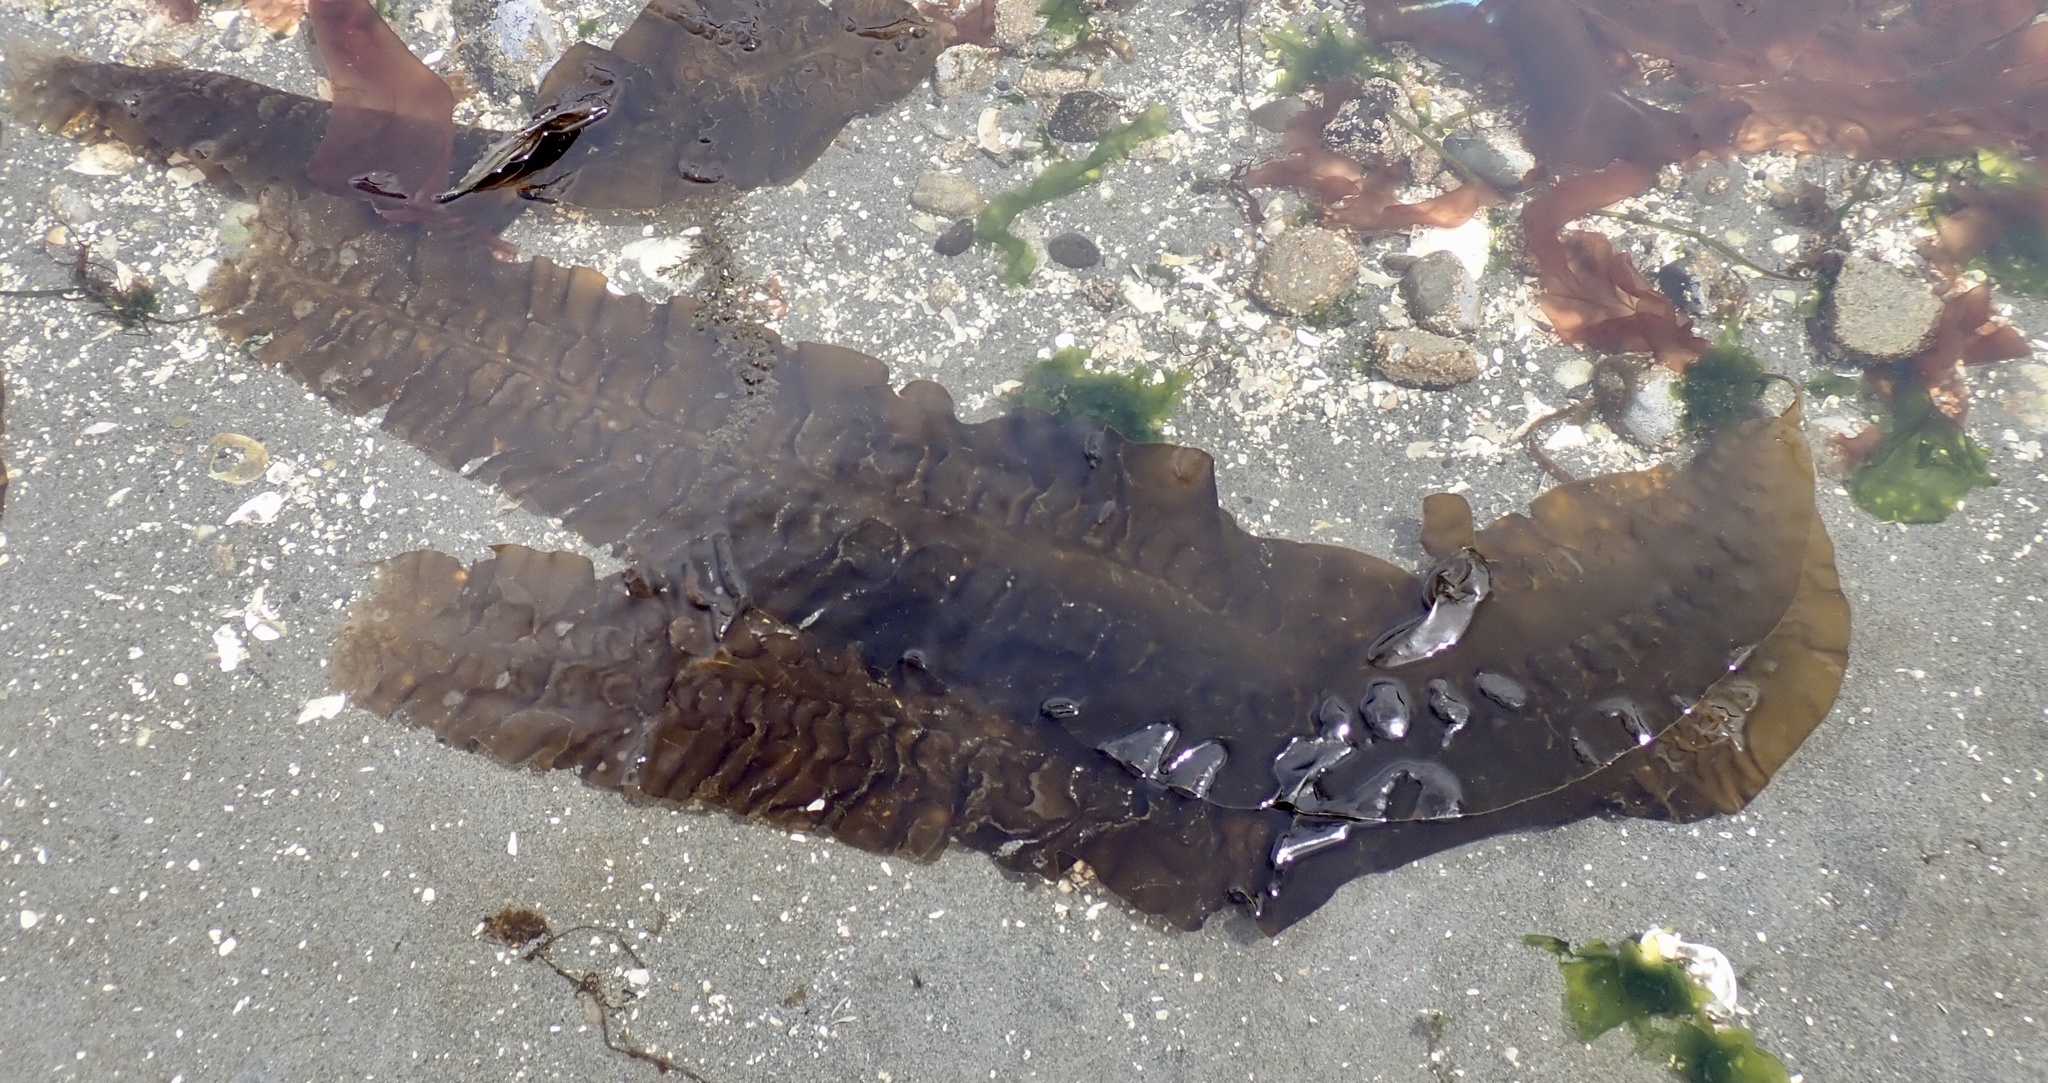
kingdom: Chromista
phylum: Ochrophyta
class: Phaeophyceae
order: Laminariales
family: Laminariaceae
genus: Saccharina
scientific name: Saccharina latissima
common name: Poor man's weather glass
